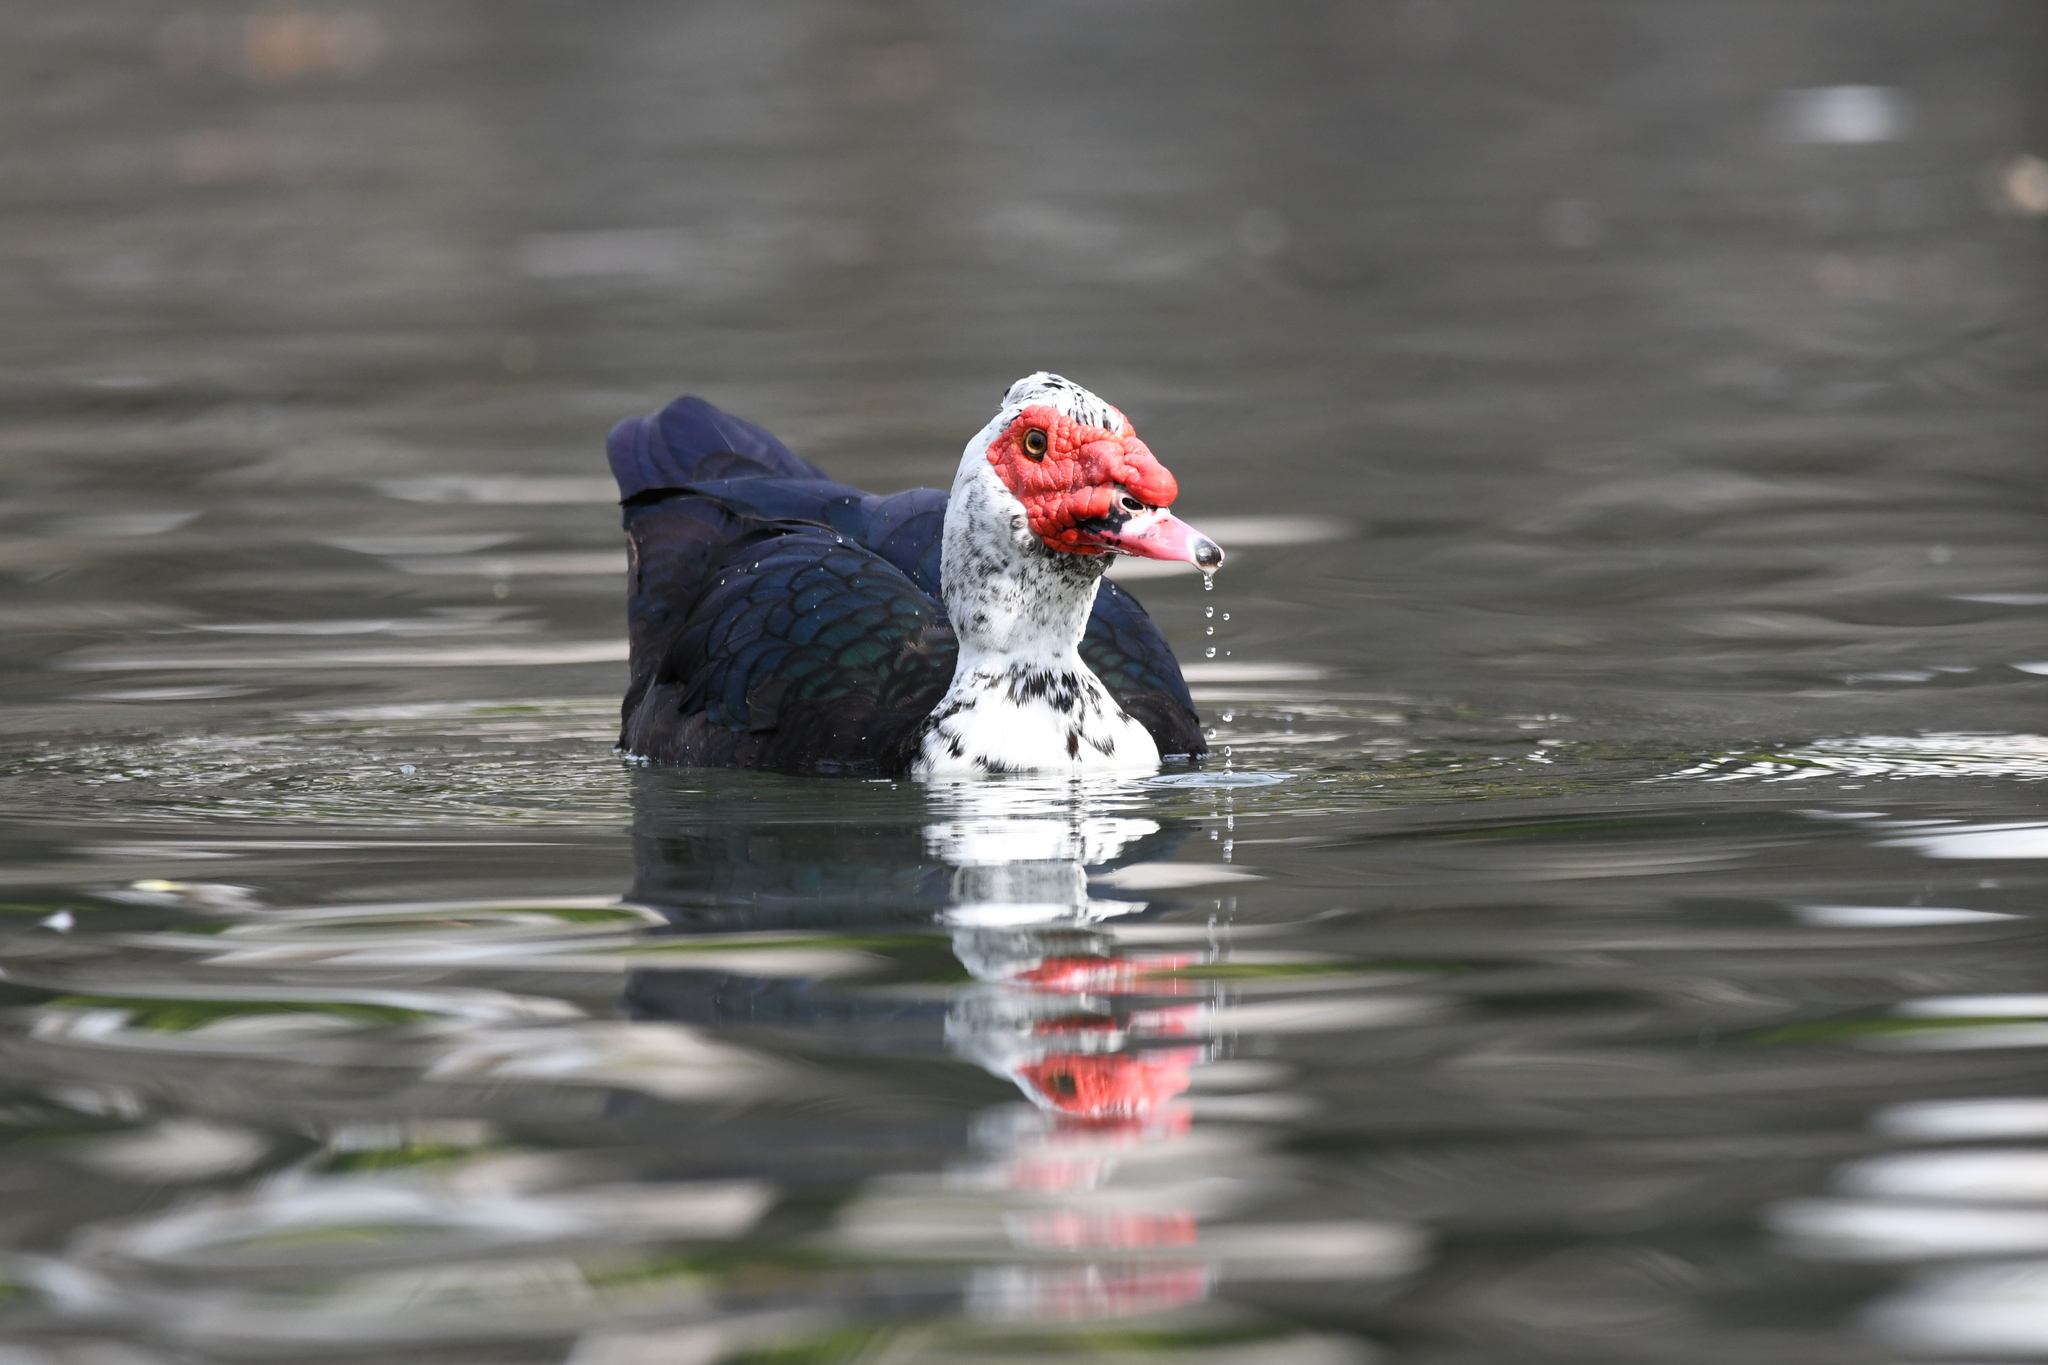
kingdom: Animalia
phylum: Chordata
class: Aves
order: Anseriformes
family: Anatidae
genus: Cairina
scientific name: Cairina moschata
